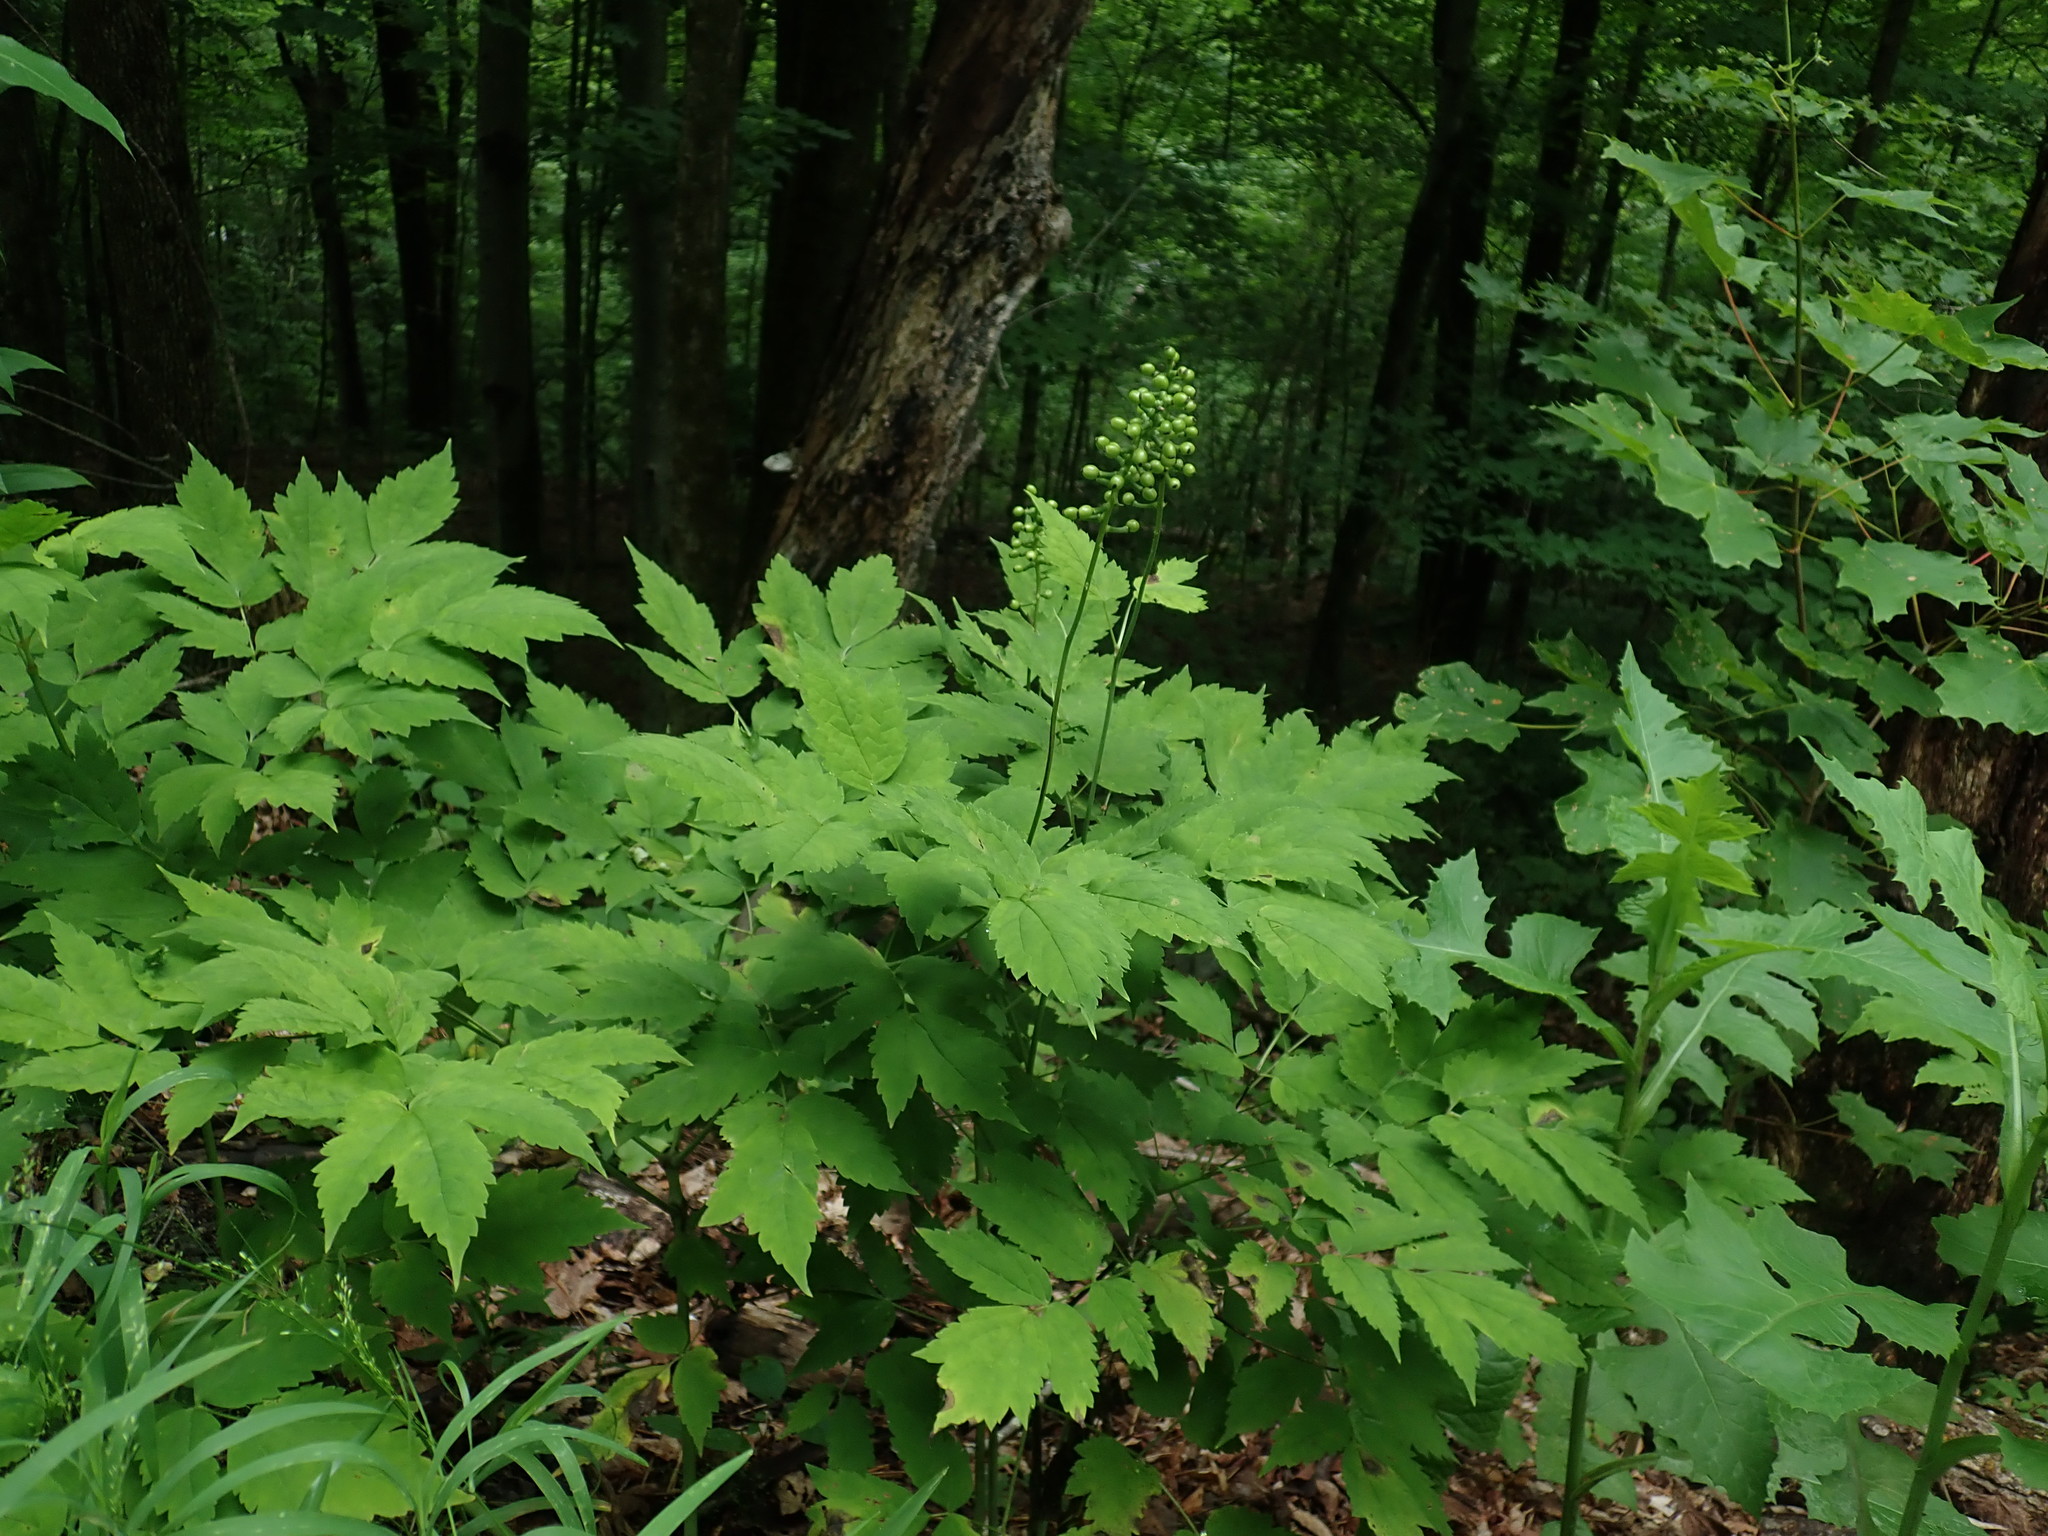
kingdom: Plantae
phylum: Tracheophyta
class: Magnoliopsida
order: Ranunculales
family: Ranunculaceae
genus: Actaea
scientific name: Actaea pachypoda
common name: Doll's-eyes
